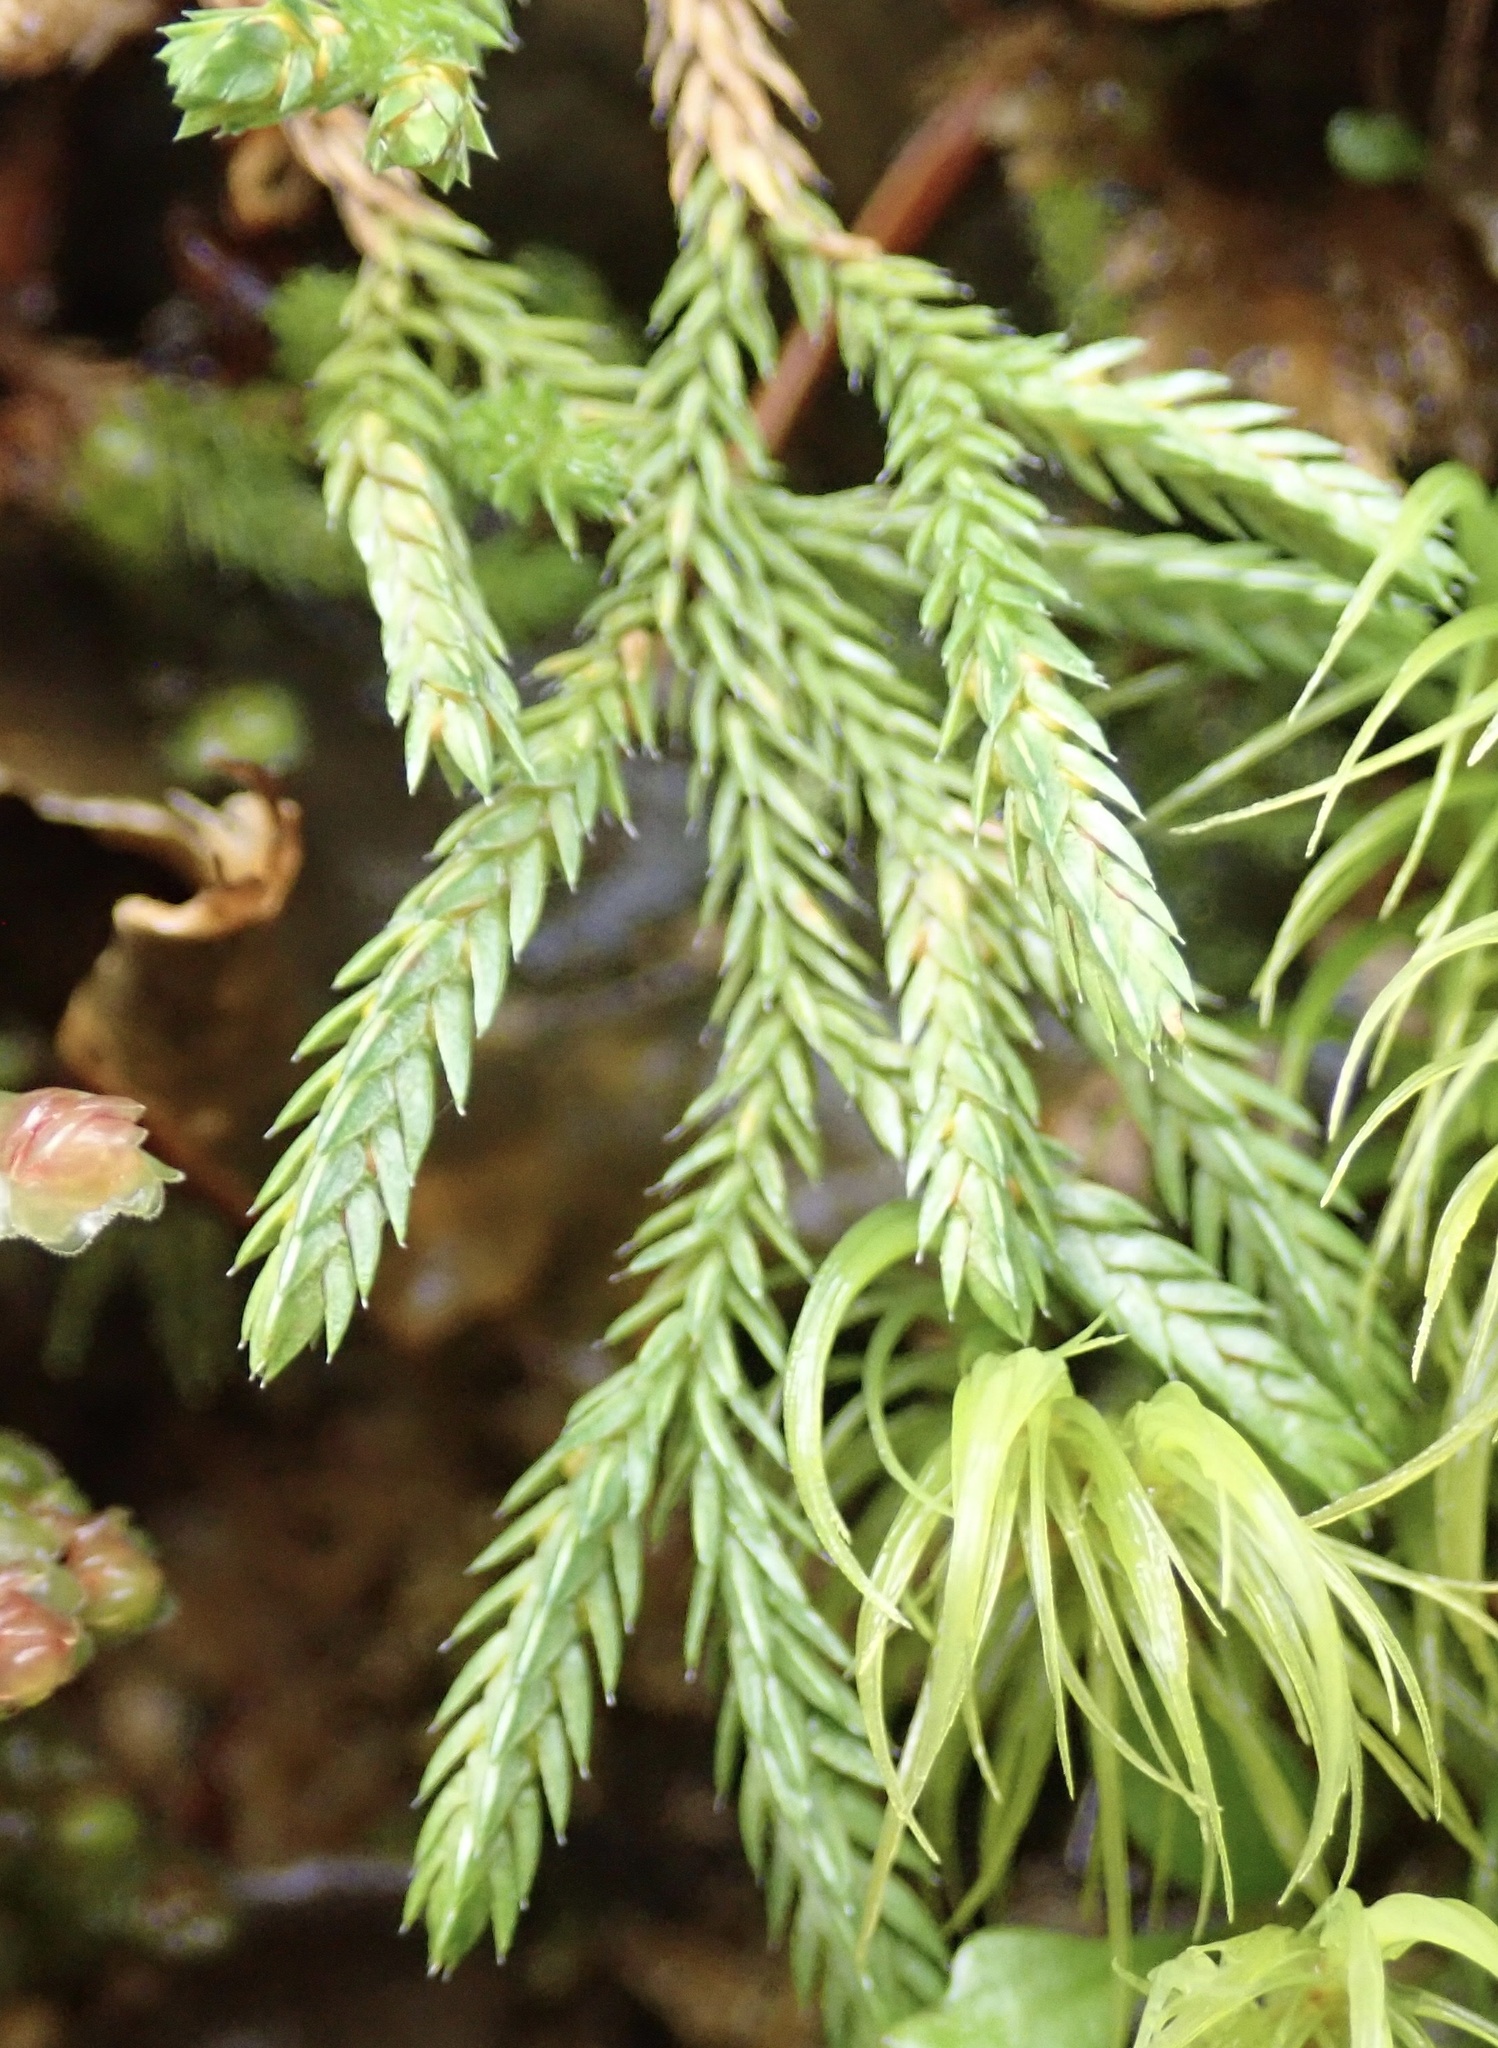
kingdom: Plantae
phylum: Tracheophyta
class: Lycopodiopsida
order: Selaginellales
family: Selaginellaceae
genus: Selaginella
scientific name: Selaginella wallacei
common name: Wallace's selaginella
